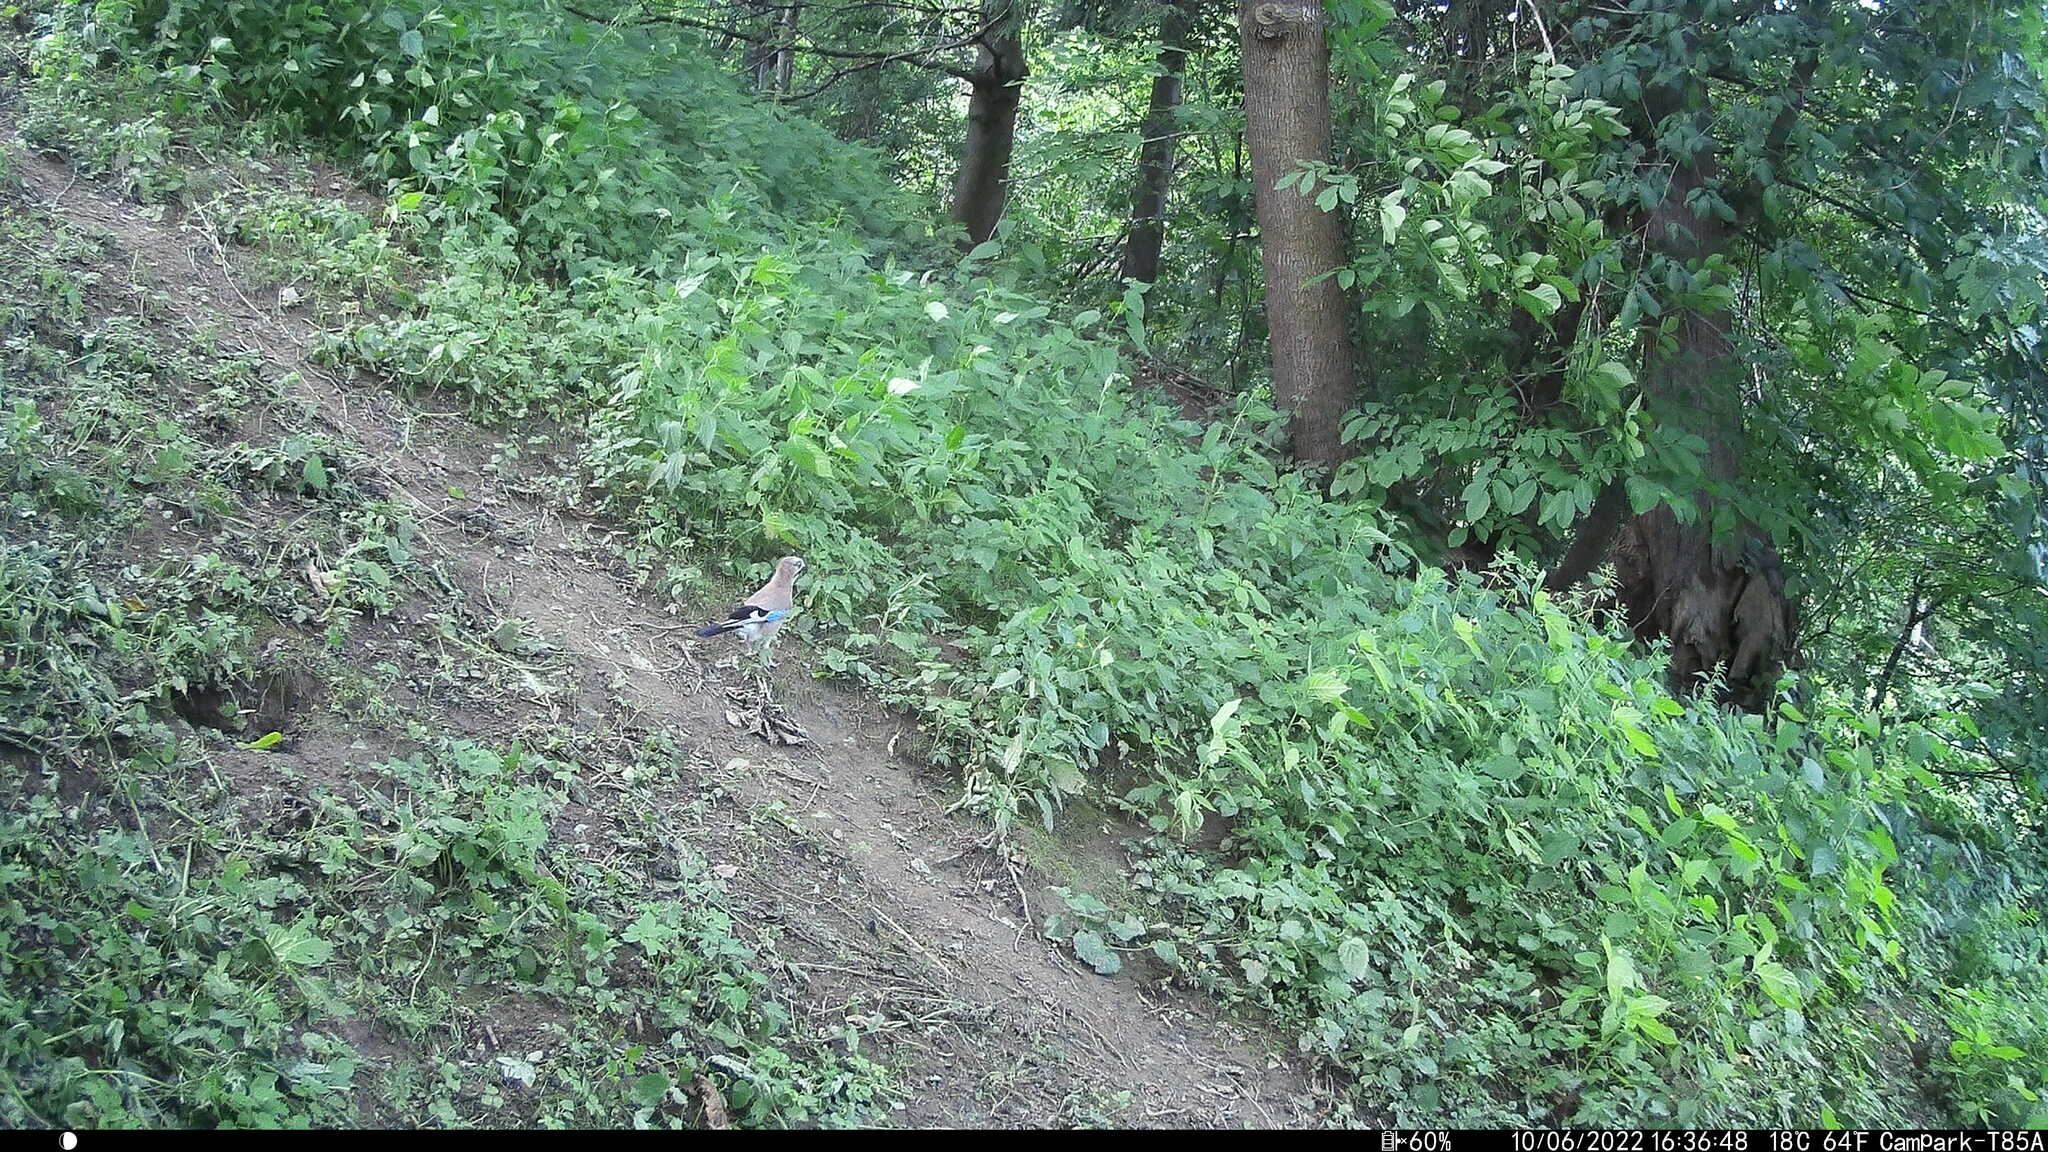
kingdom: Animalia
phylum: Chordata
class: Aves
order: Passeriformes
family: Corvidae
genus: Garrulus
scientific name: Garrulus glandarius
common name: Eurasian jay
